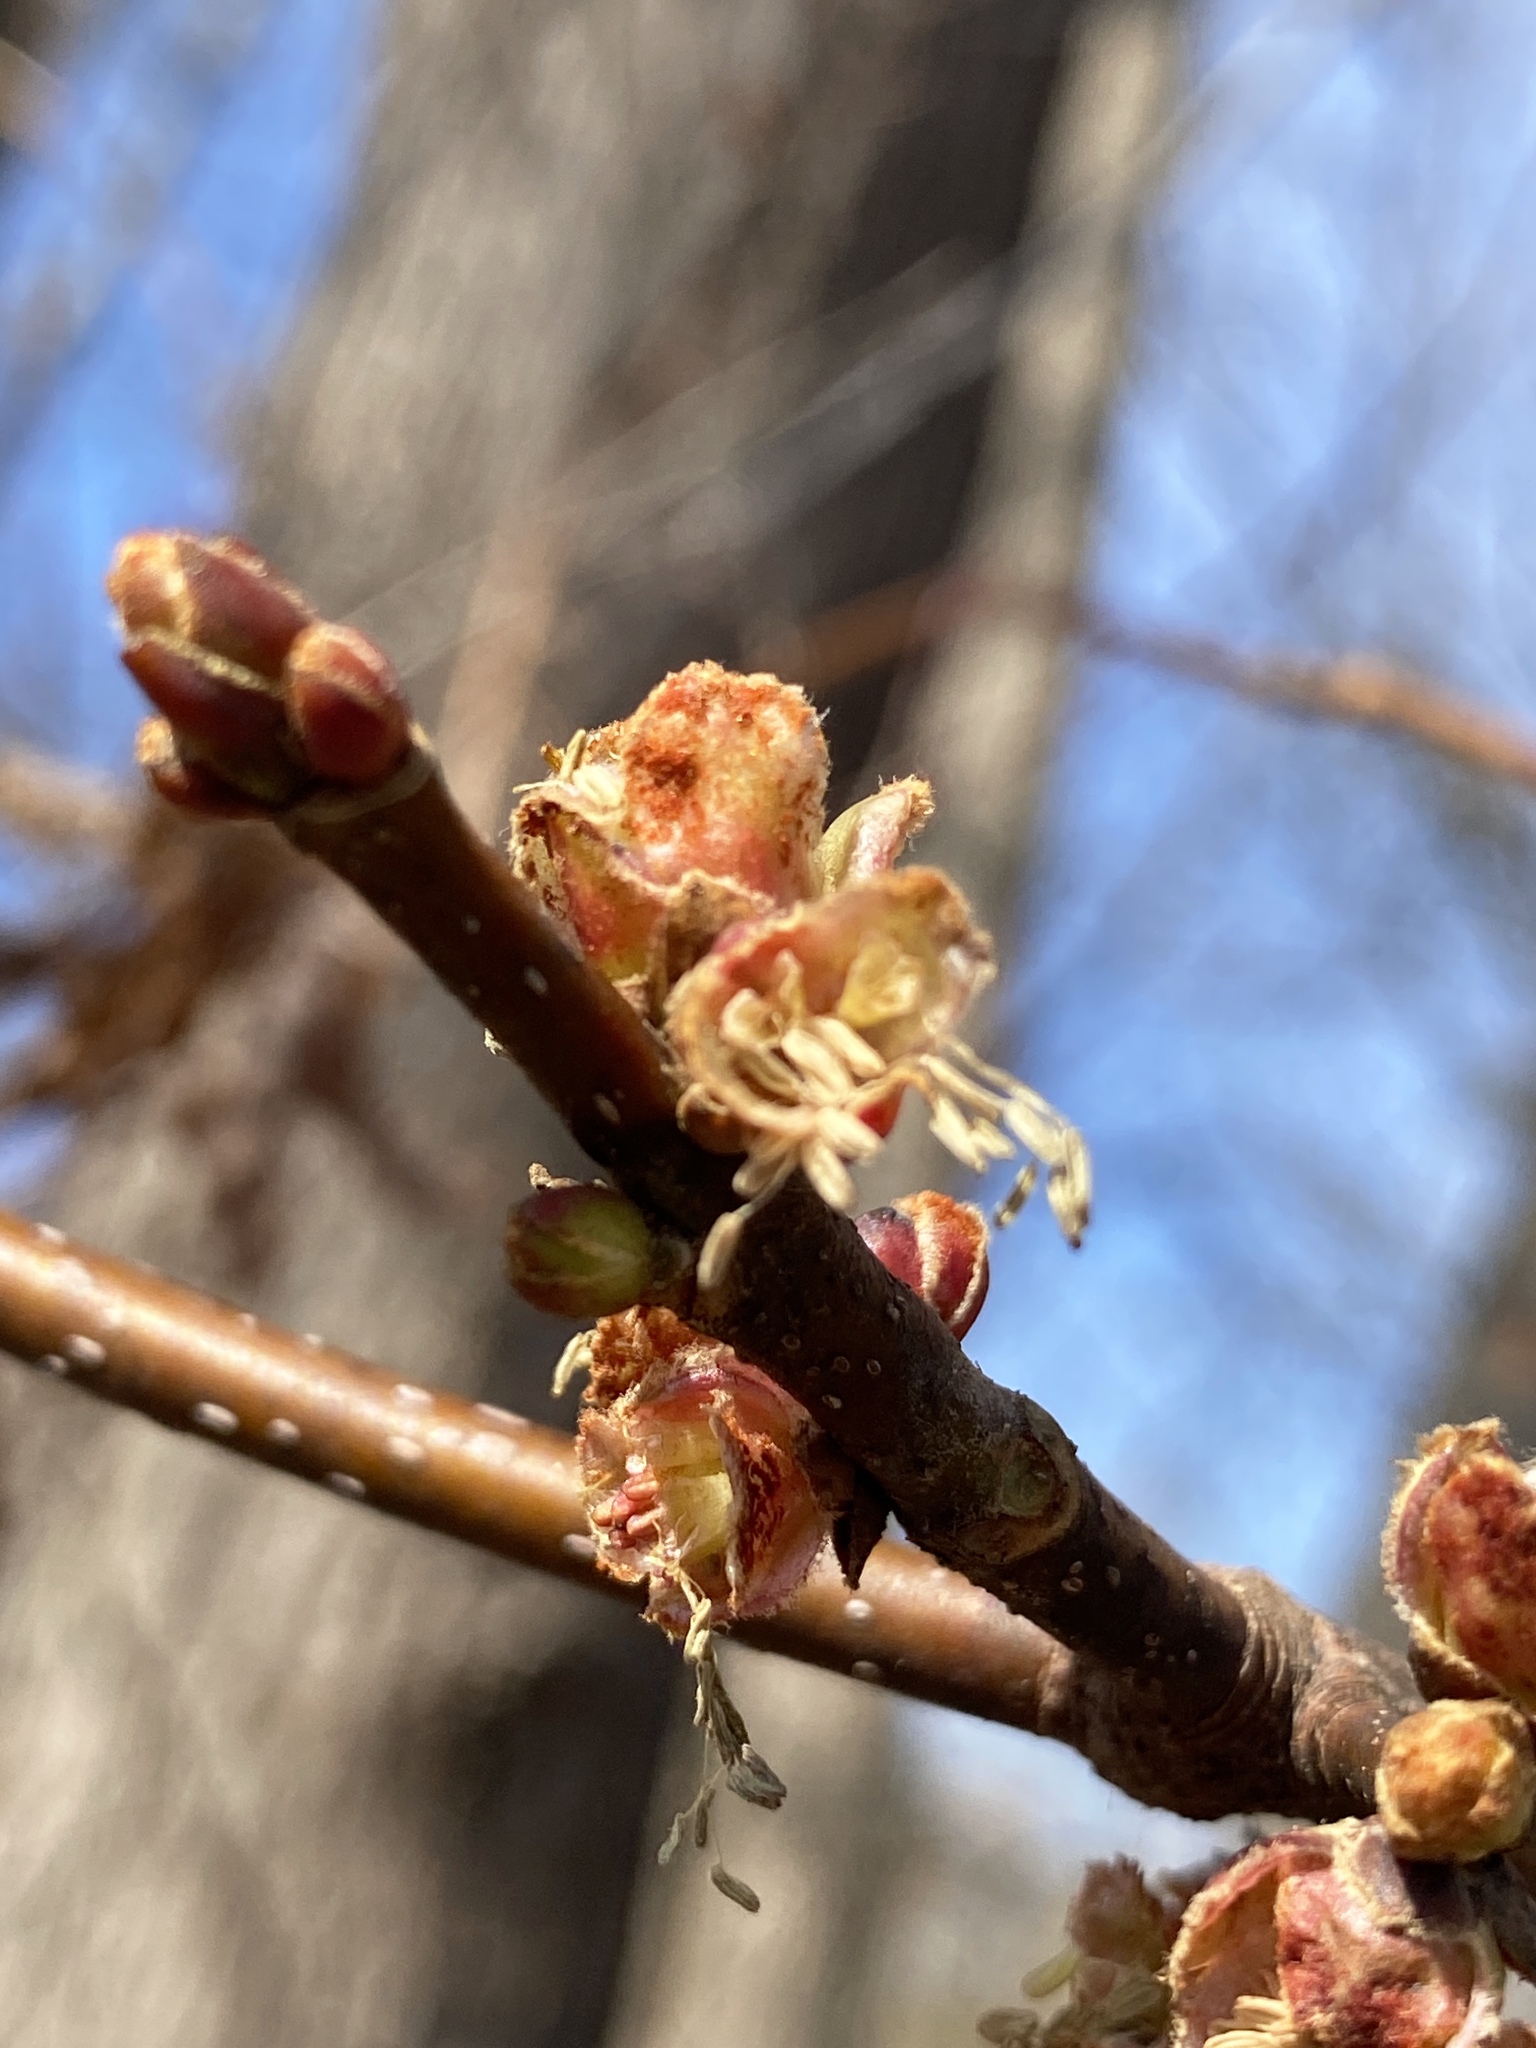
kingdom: Plantae
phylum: Tracheophyta
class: Magnoliopsida
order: Sapindales
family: Sapindaceae
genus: Acer
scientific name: Acer saccharinum
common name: Silver maple
